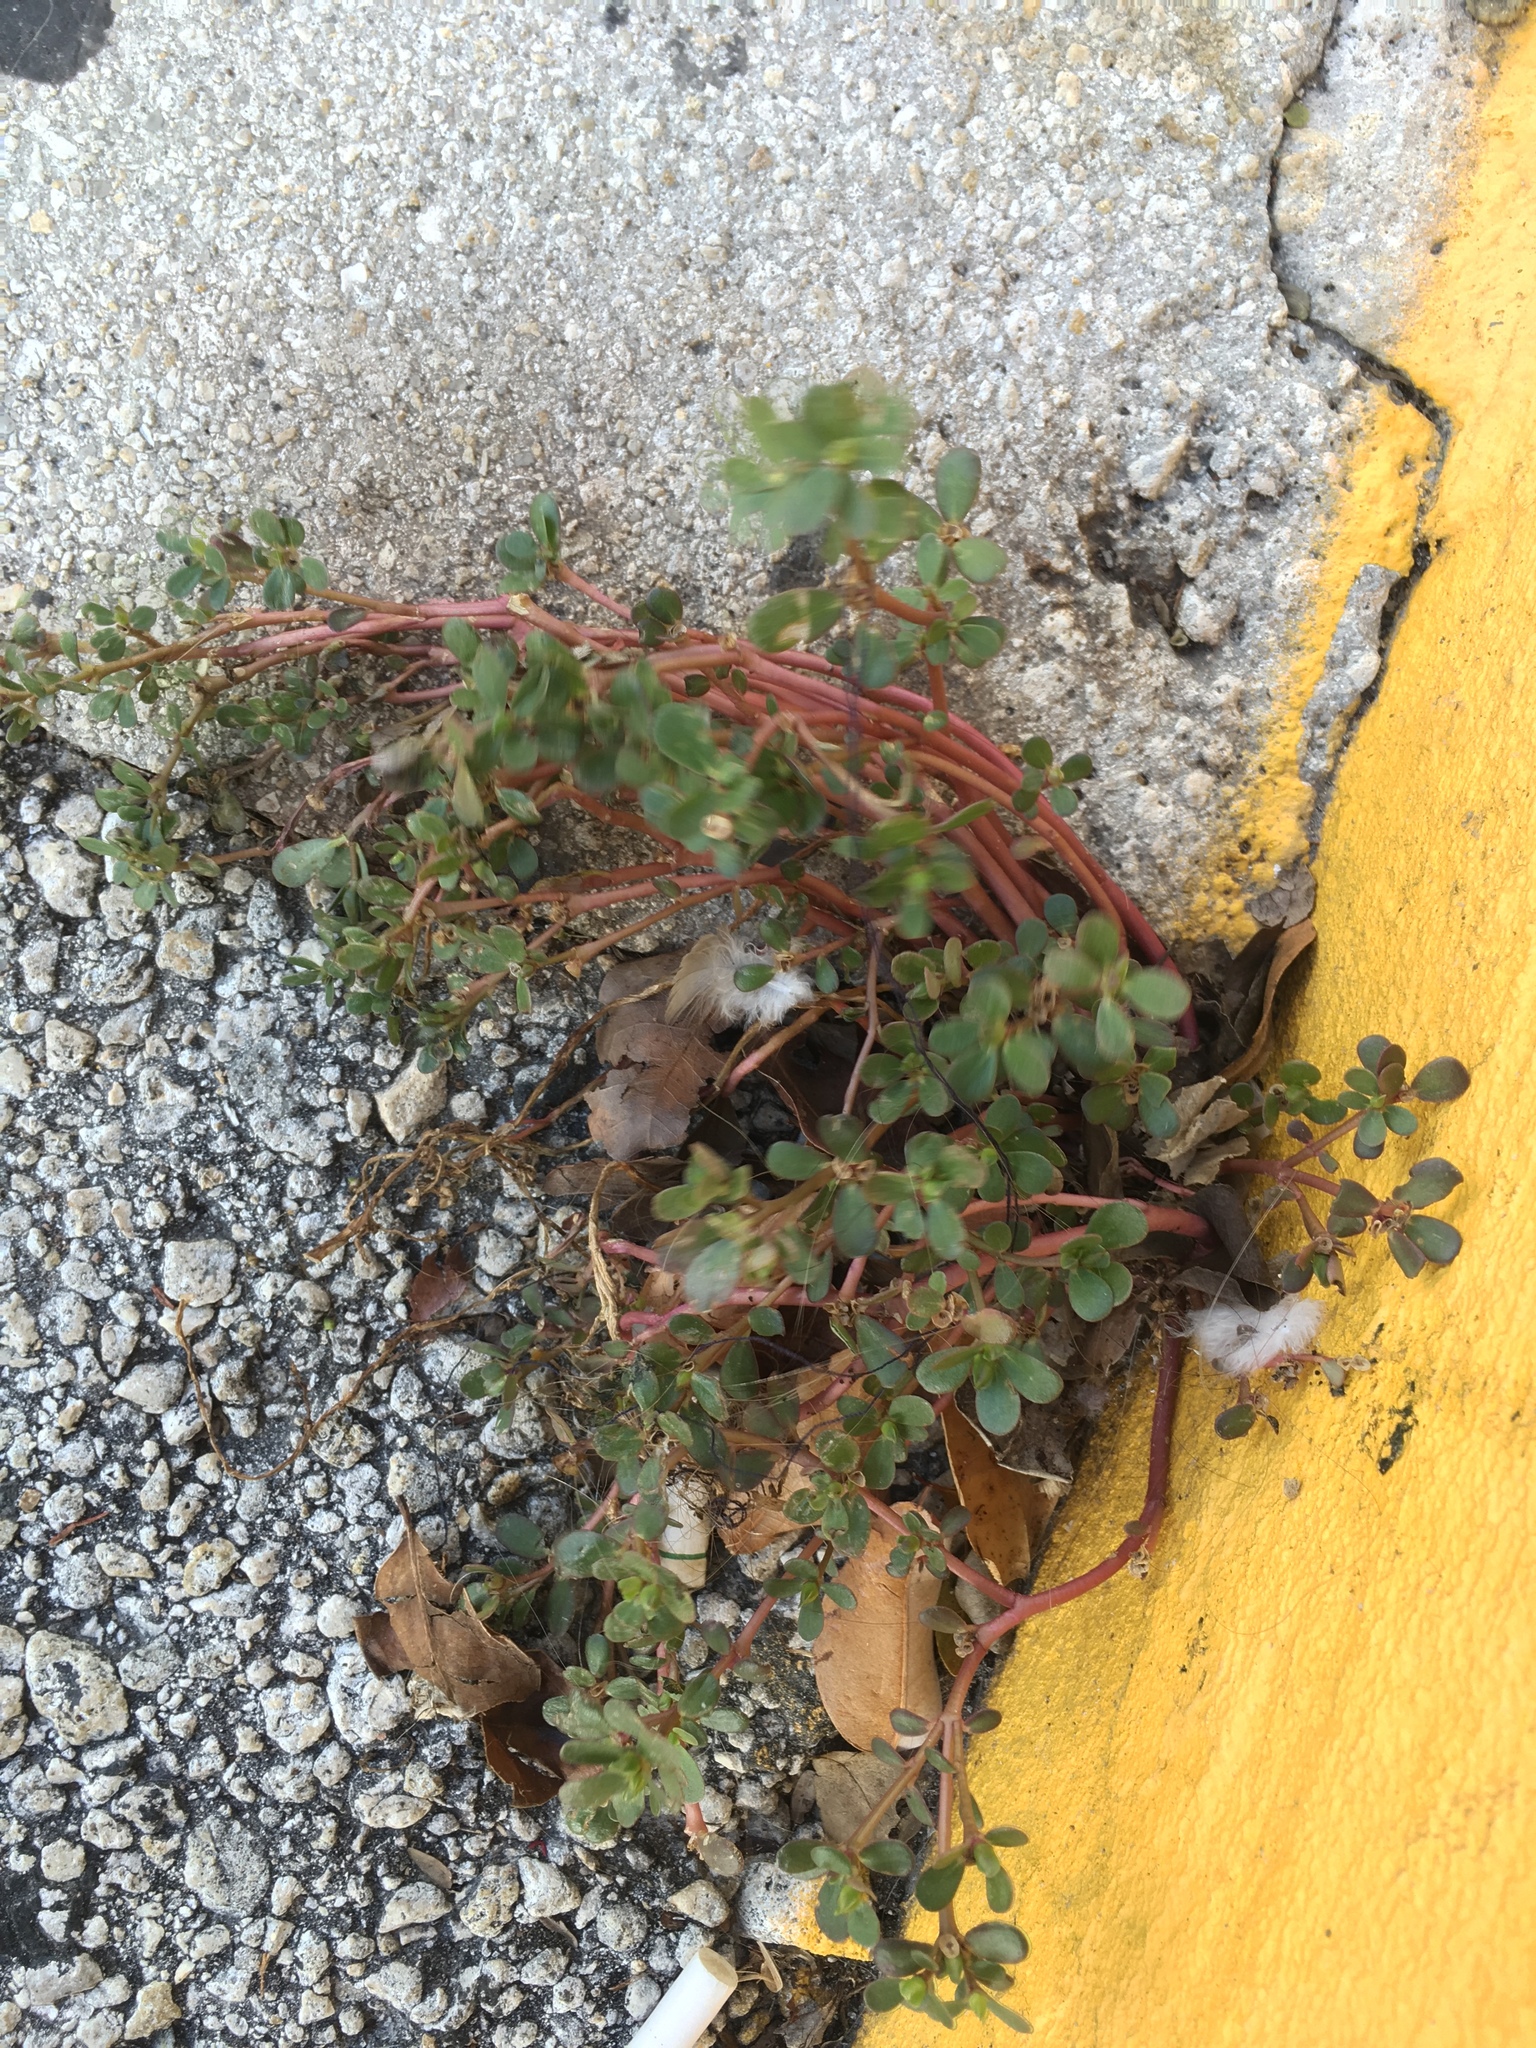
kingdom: Plantae
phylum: Tracheophyta
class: Magnoliopsida
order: Caryophyllales
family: Portulacaceae
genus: Portulaca
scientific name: Portulaca oleracea
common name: Common purslane
